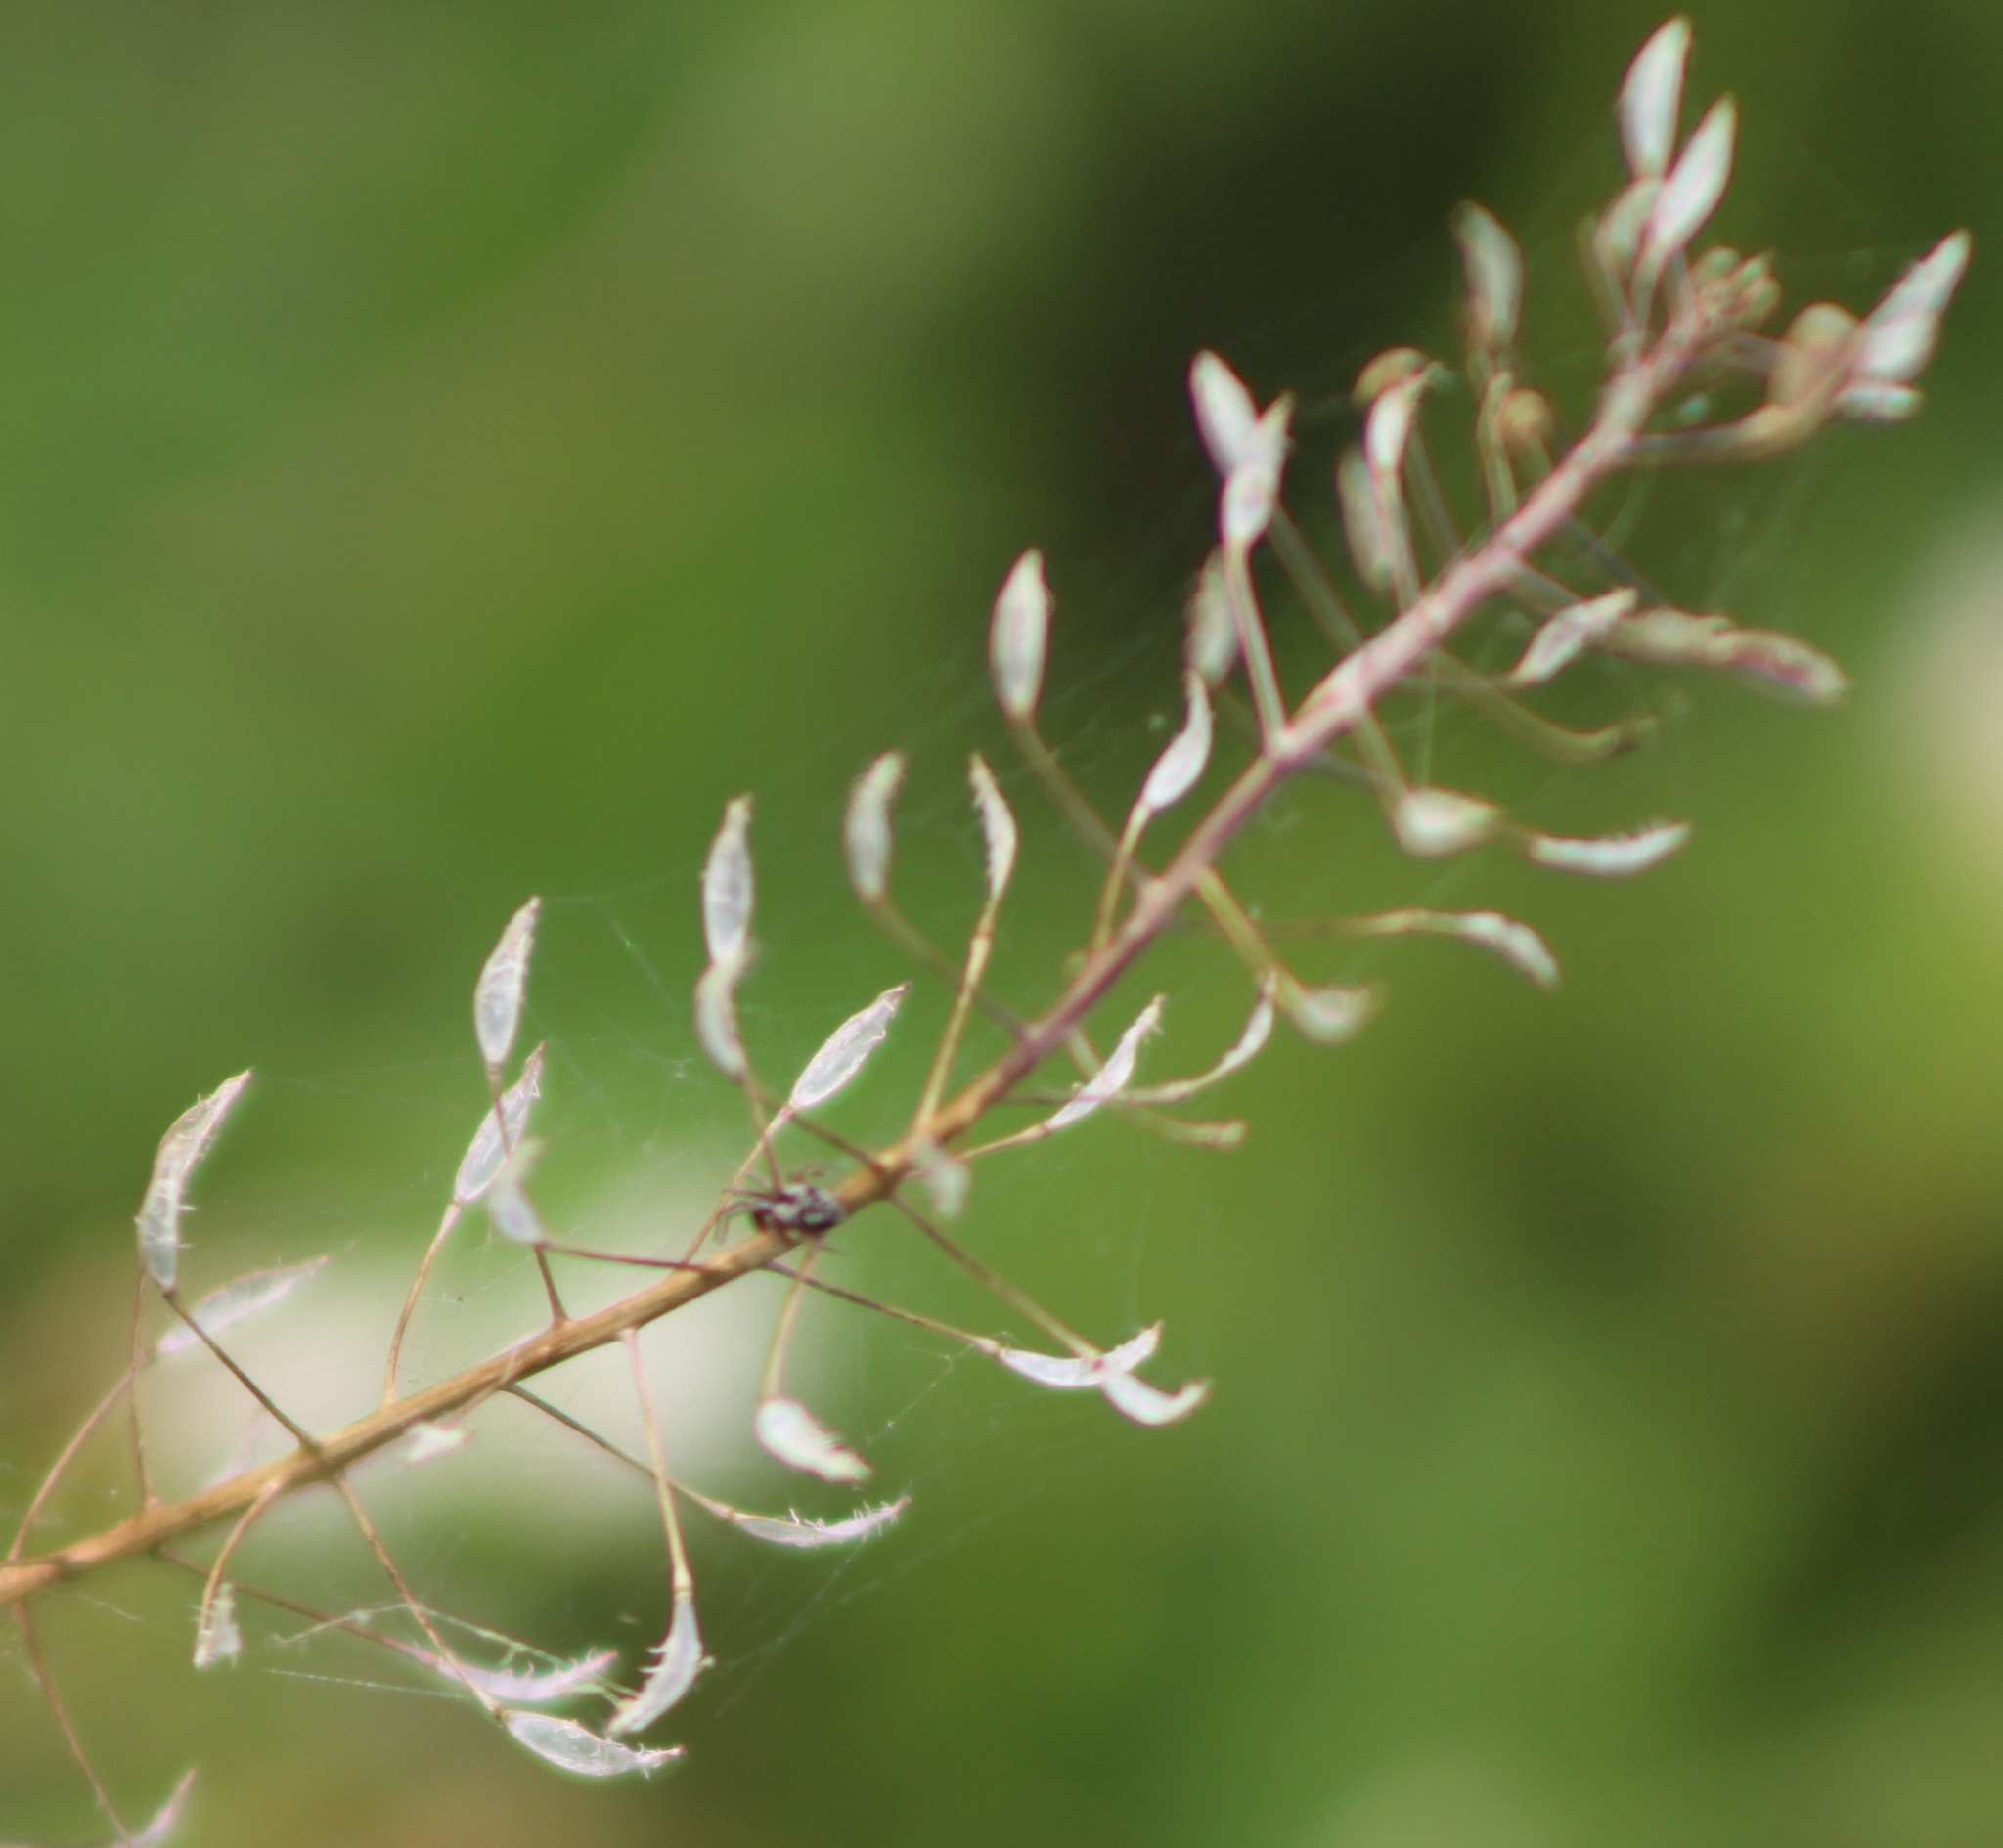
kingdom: Plantae
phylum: Tracheophyta
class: Magnoliopsida
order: Brassicales
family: Brassicaceae
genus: Capsella
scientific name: Capsella bursa-pastoris
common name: Shepherd's purse
